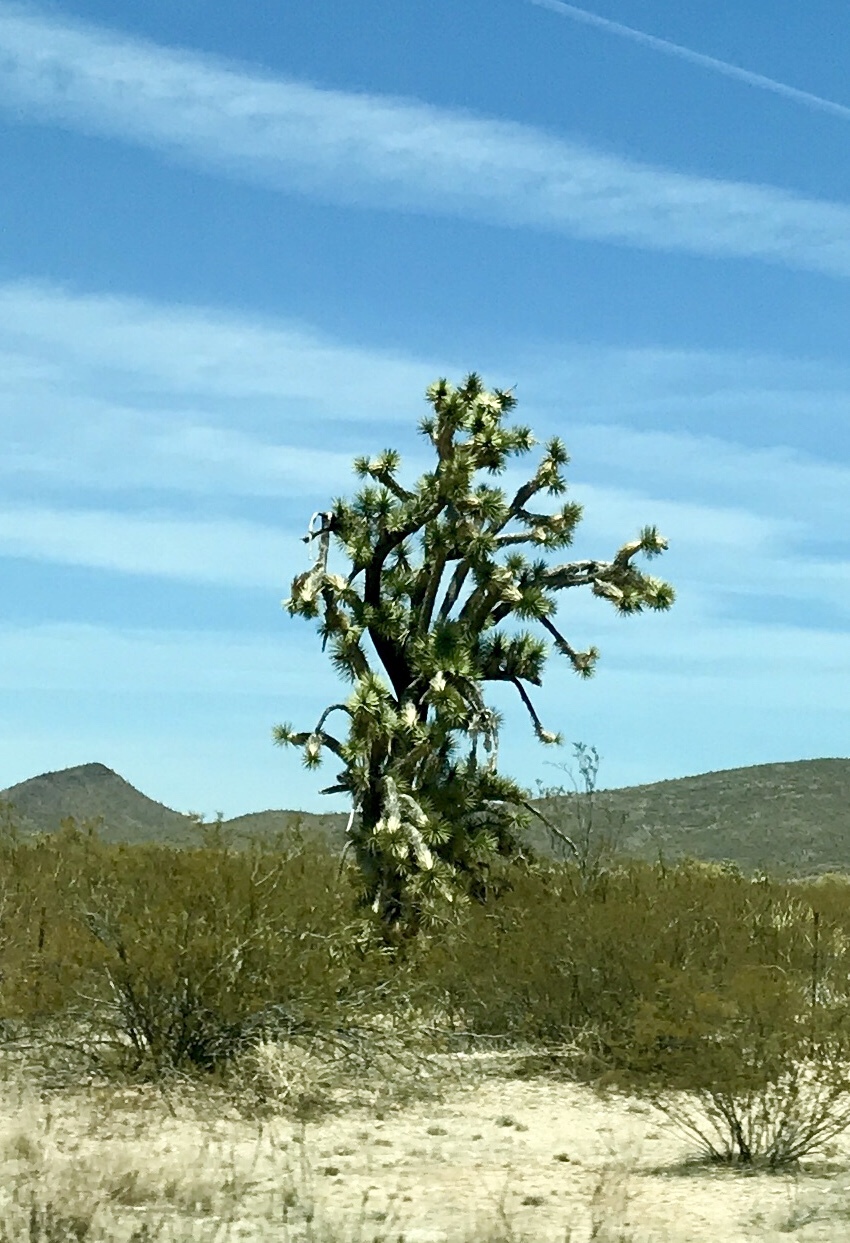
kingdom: Plantae
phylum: Tracheophyta
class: Liliopsida
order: Asparagales
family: Asparagaceae
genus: Yucca
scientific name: Yucca brevifolia
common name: Joshua tree
